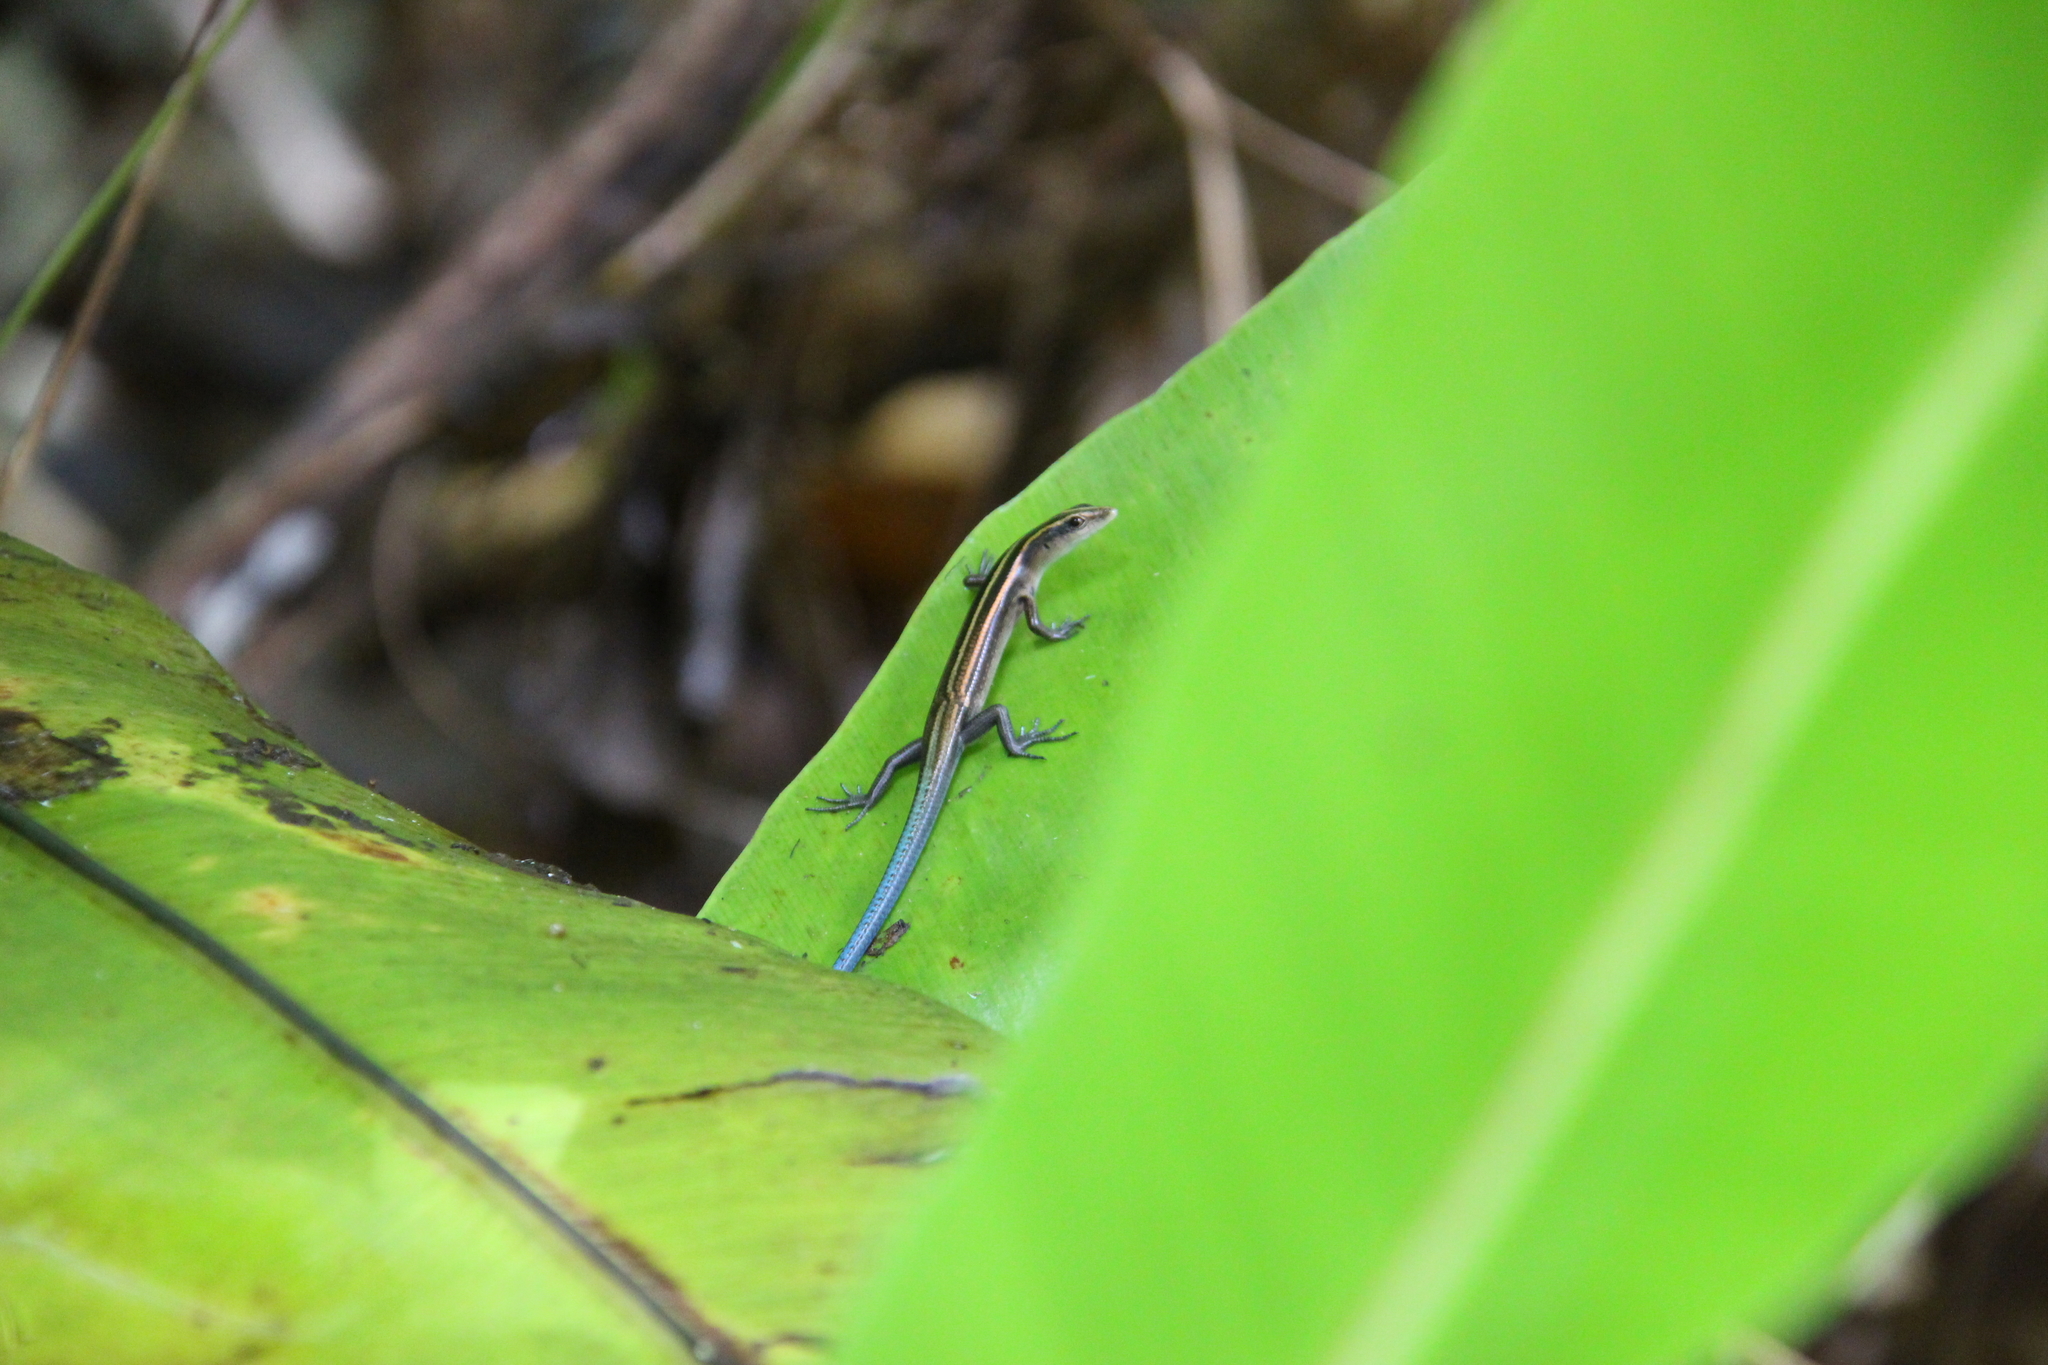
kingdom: Animalia
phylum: Chordata
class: Squamata
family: Scincidae
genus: Emoia
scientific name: Emoia impar
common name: Azure-tailed skink
